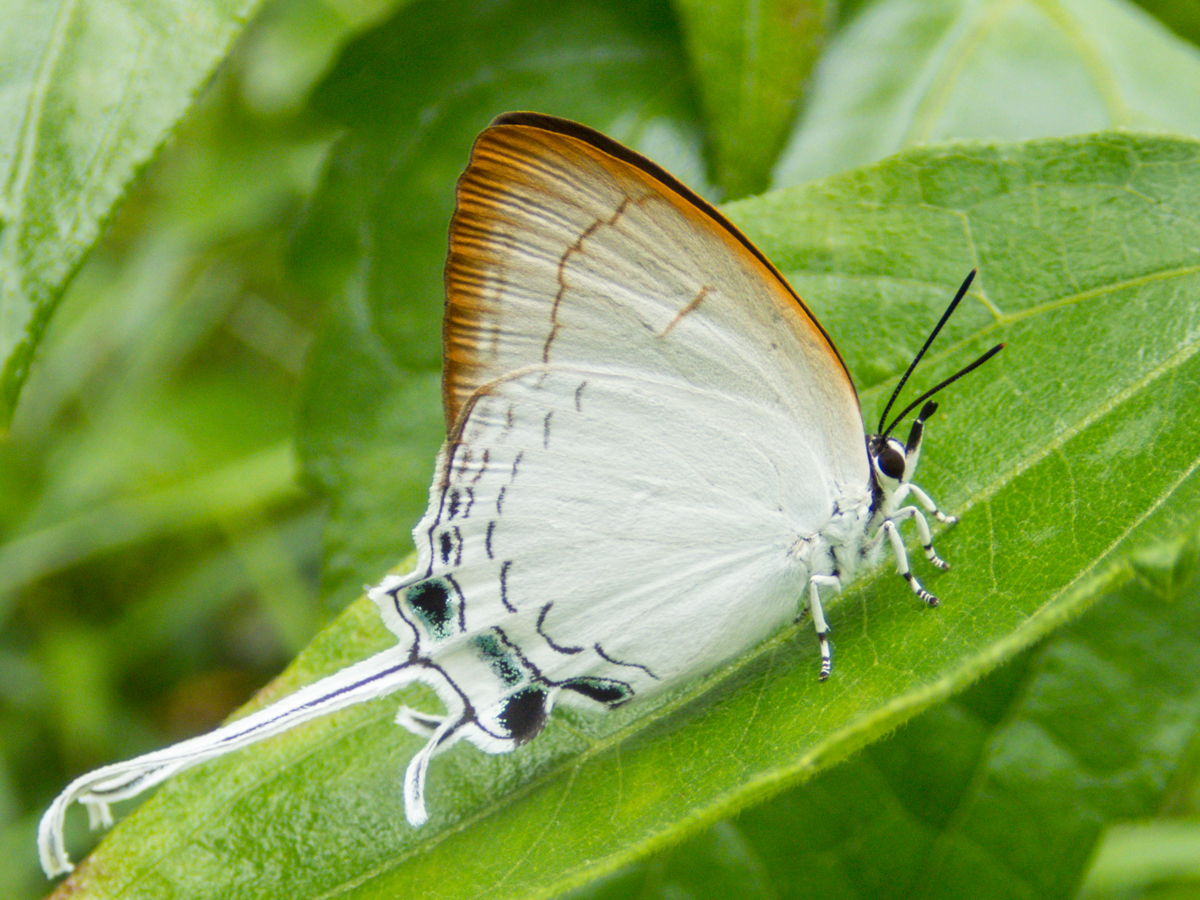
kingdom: Animalia
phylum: Arthropoda
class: Insecta
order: Lepidoptera
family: Lycaenidae
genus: Cheritra
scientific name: Cheritra freja
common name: Common imperial
